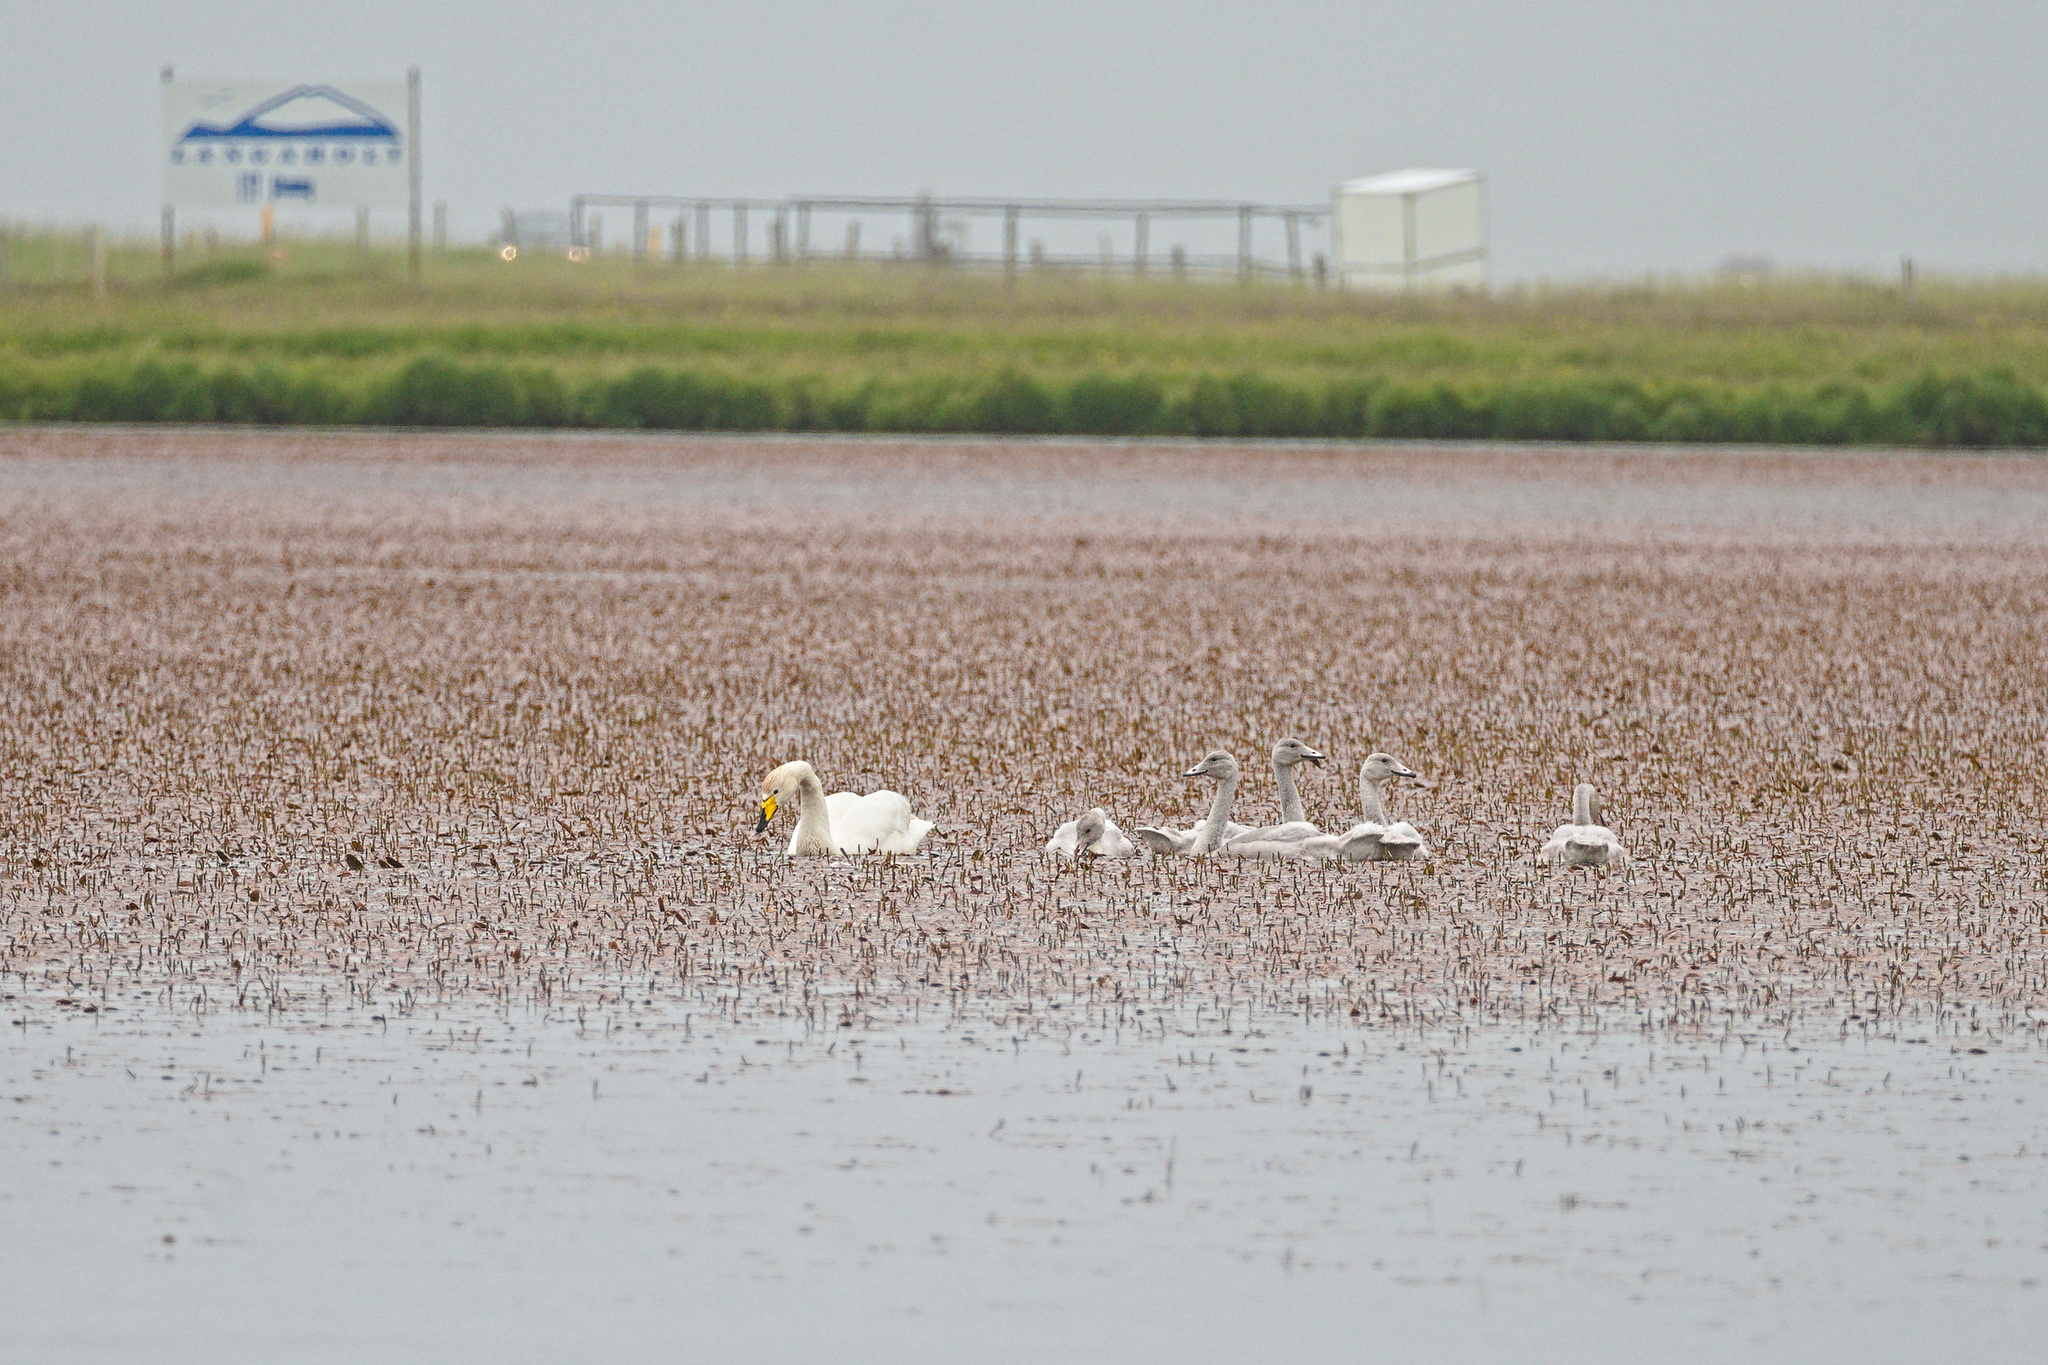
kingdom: Animalia
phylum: Chordata
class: Aves
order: Anseriformes
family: Anatidae
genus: Cygnus
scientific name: Cygnus cygnus
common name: Whooper swan
